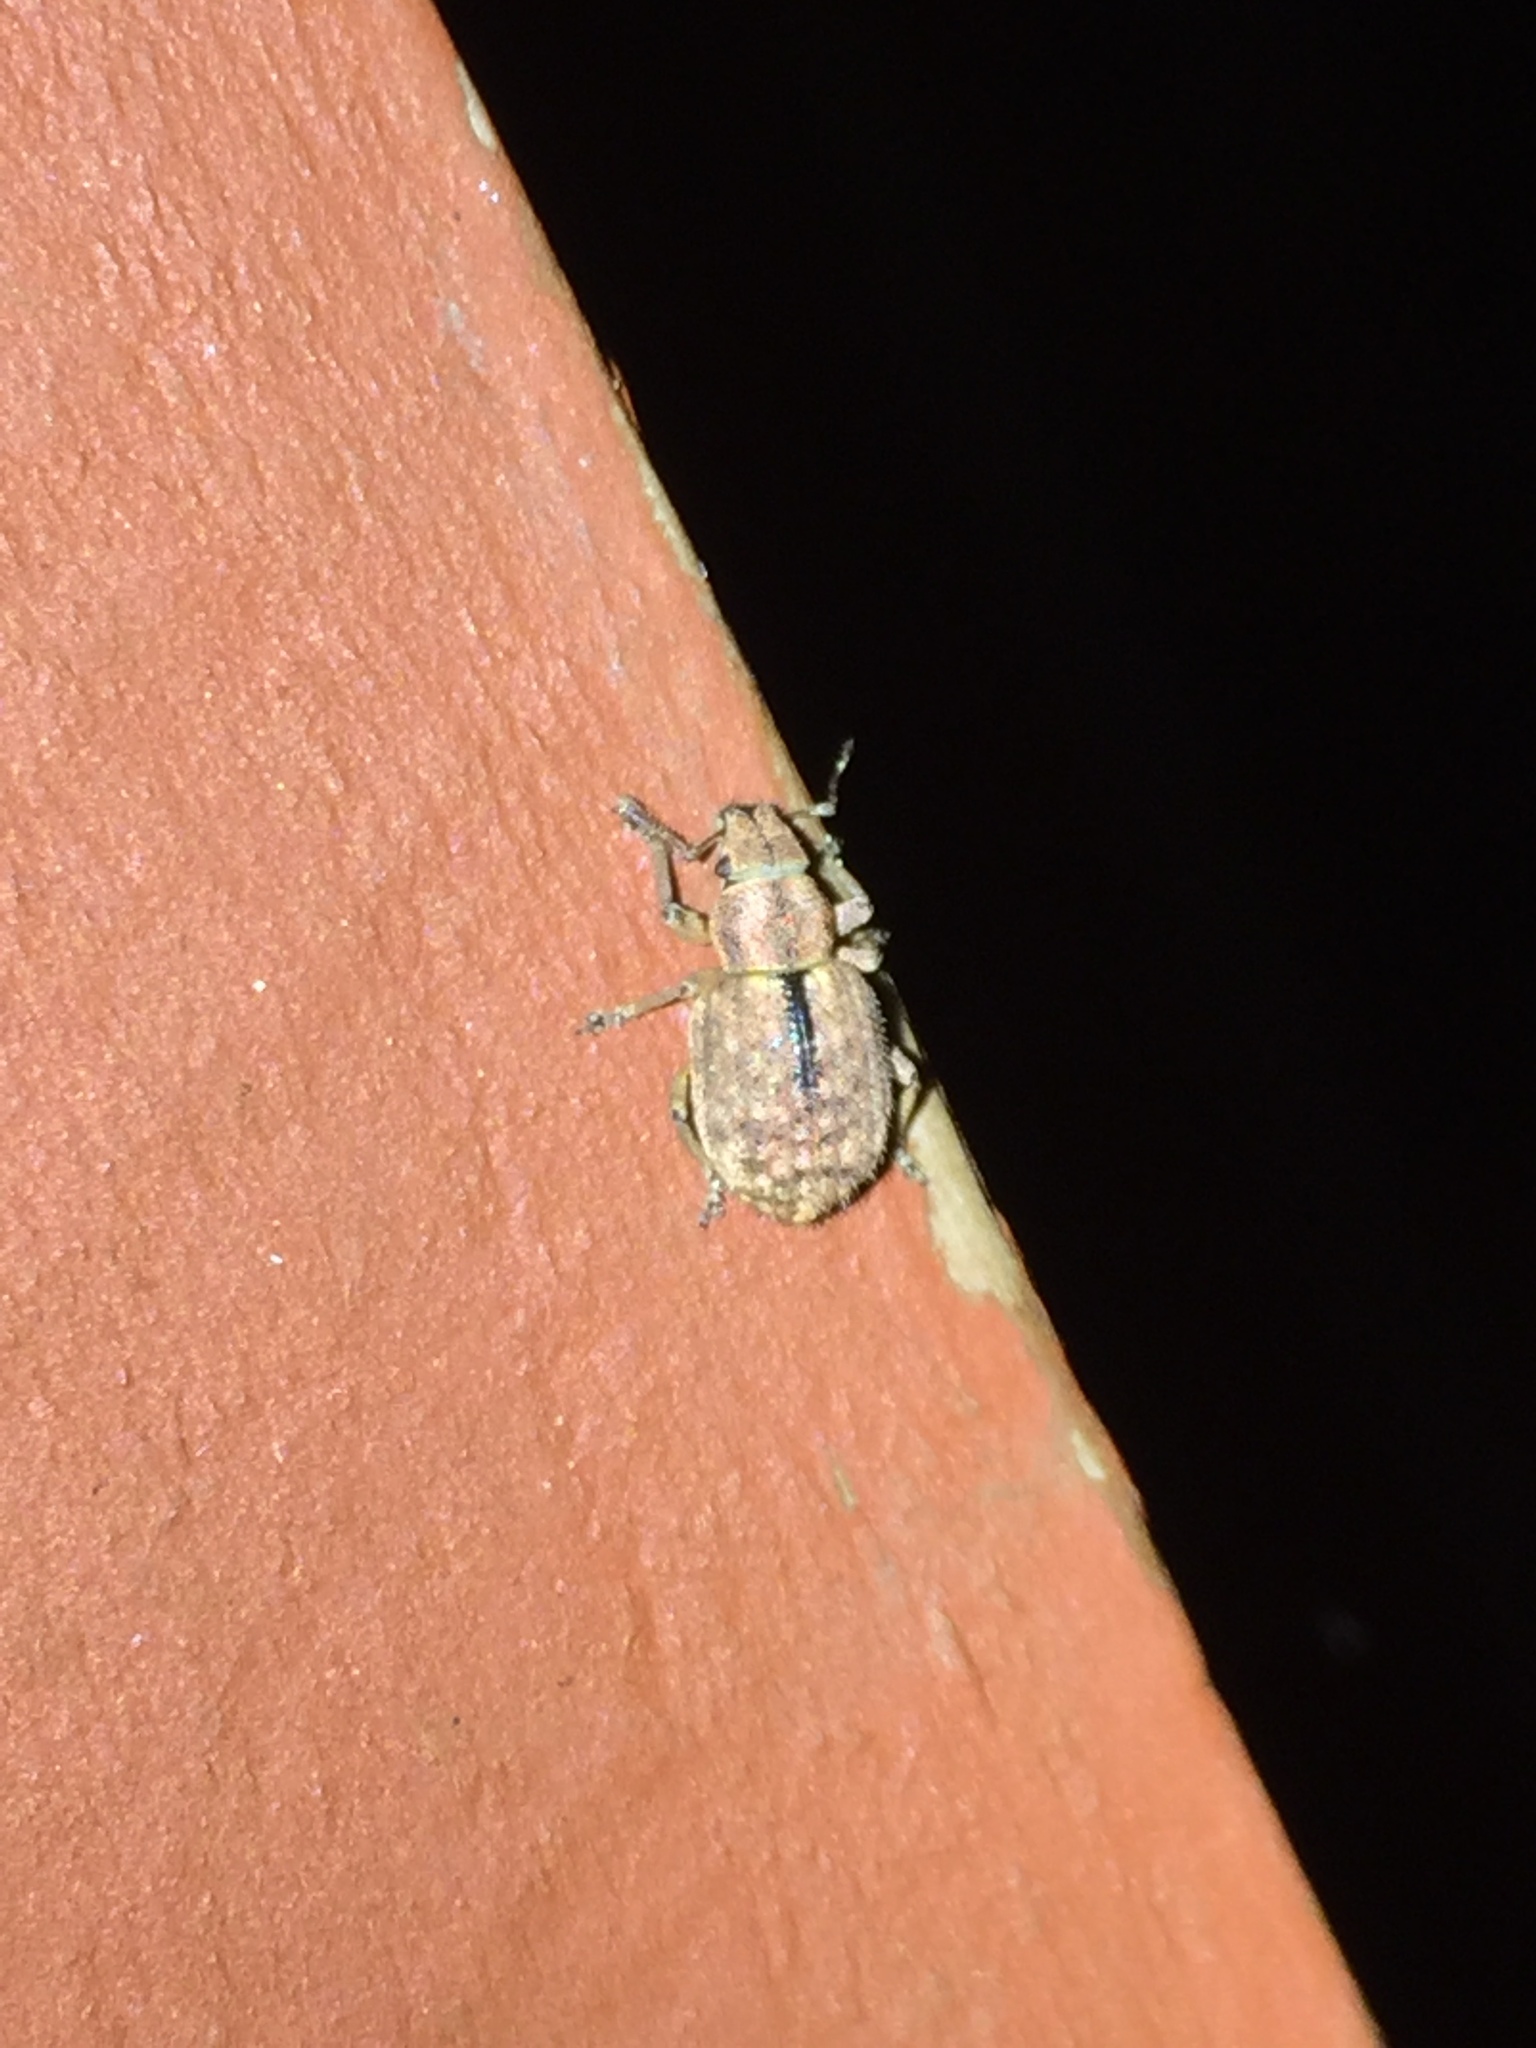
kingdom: Animalia
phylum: Arthropoda
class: Insecta
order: Coleoptera
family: Curculionidae
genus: Strophosoma
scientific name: Strophosoma melanogrammum
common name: Weevil
